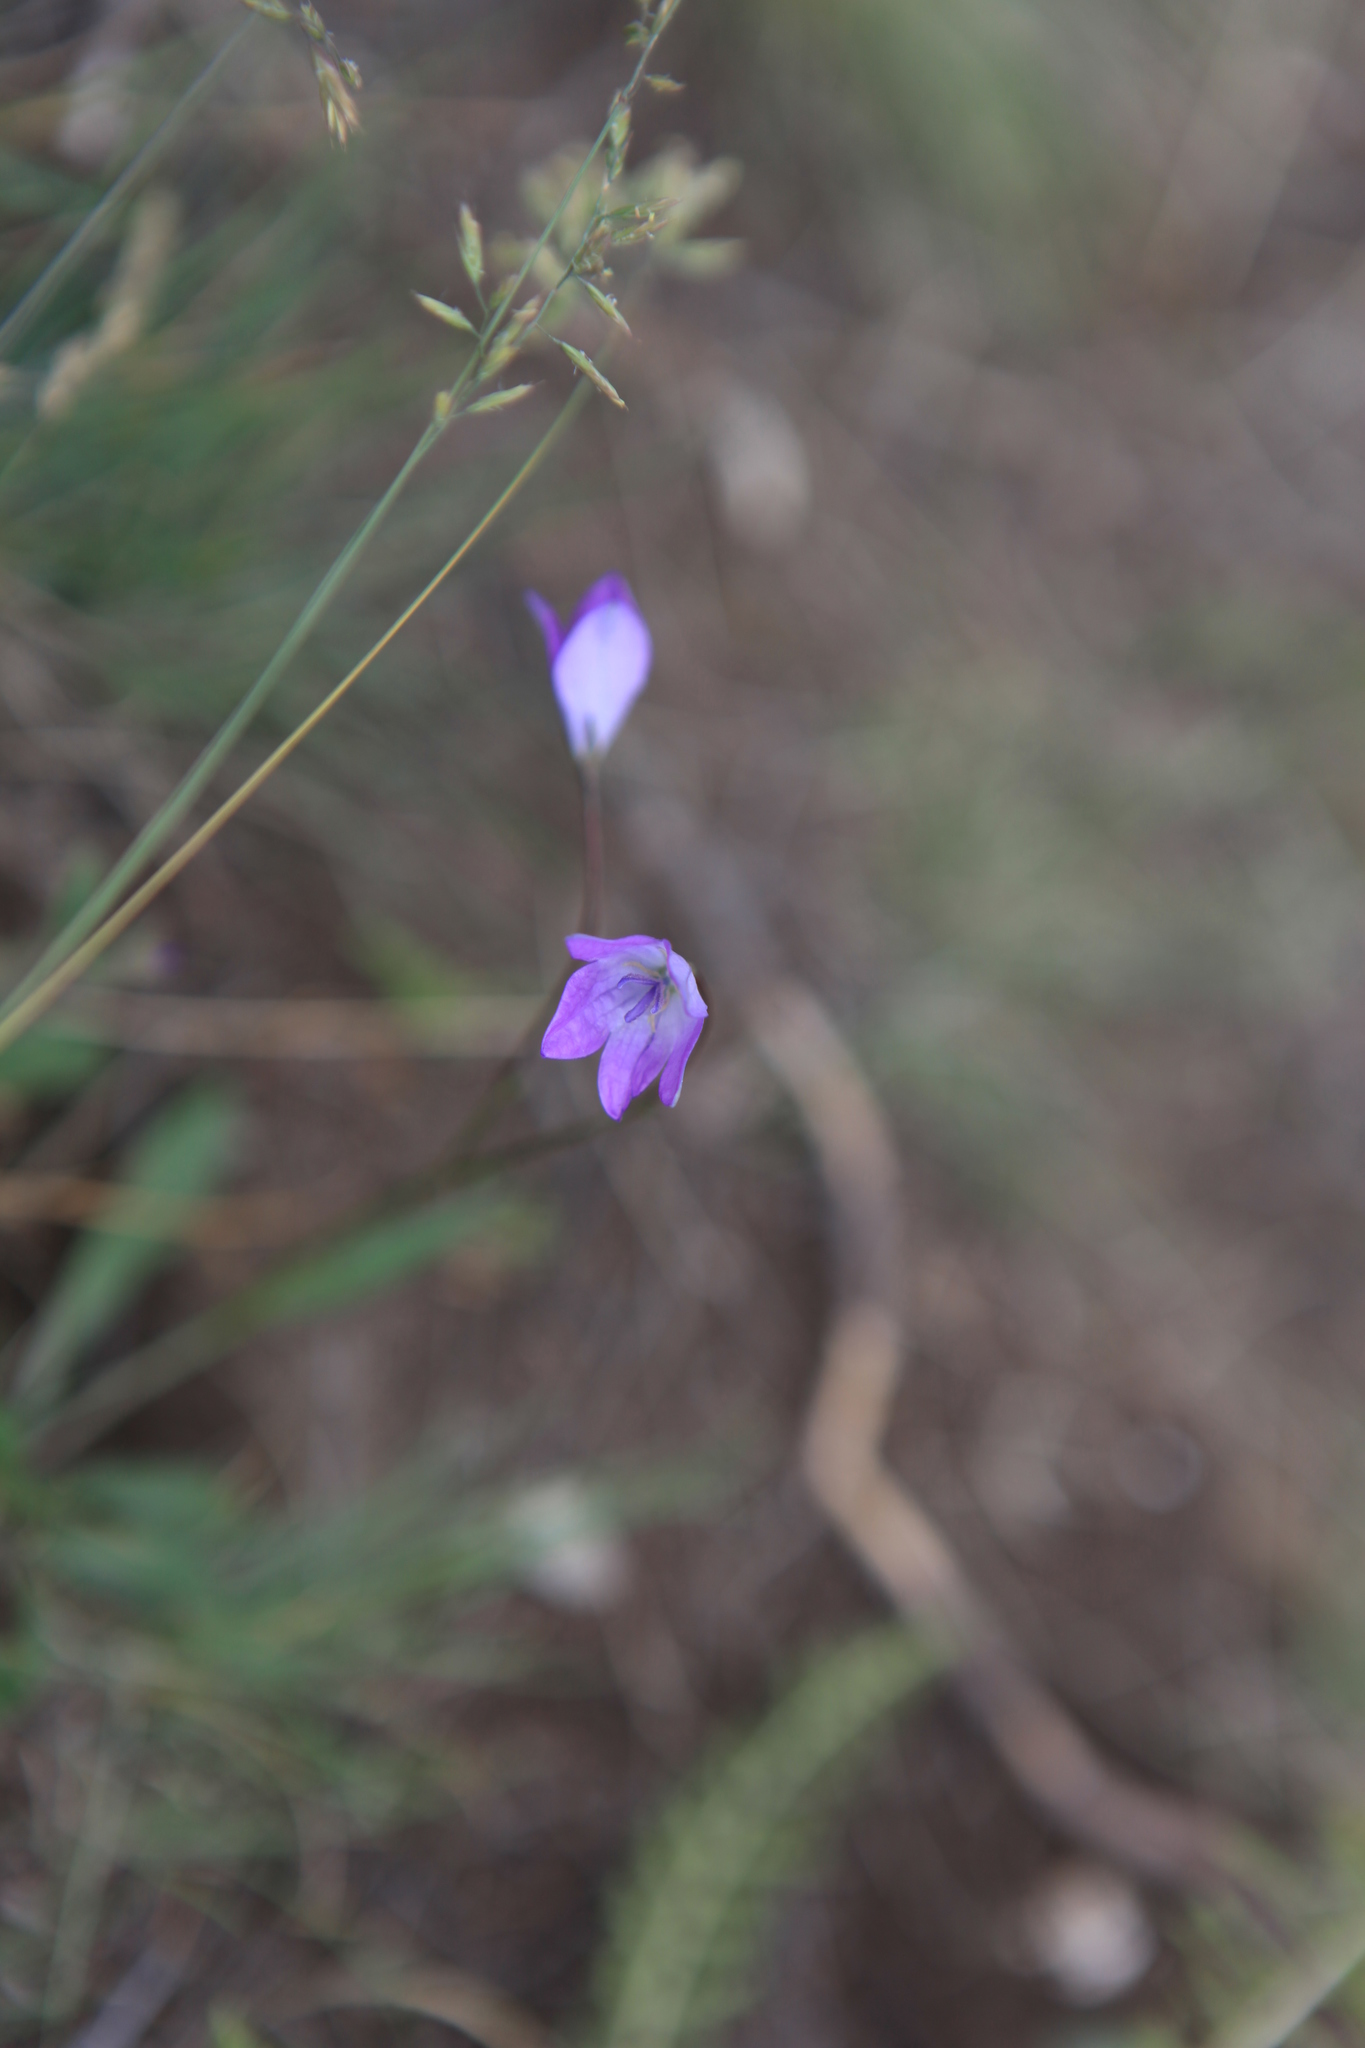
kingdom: Plantae
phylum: Tracheophyta
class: Magnoliopsida
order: Asterales
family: Campanulaceae
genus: Campanula
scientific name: Campanula stevenii
